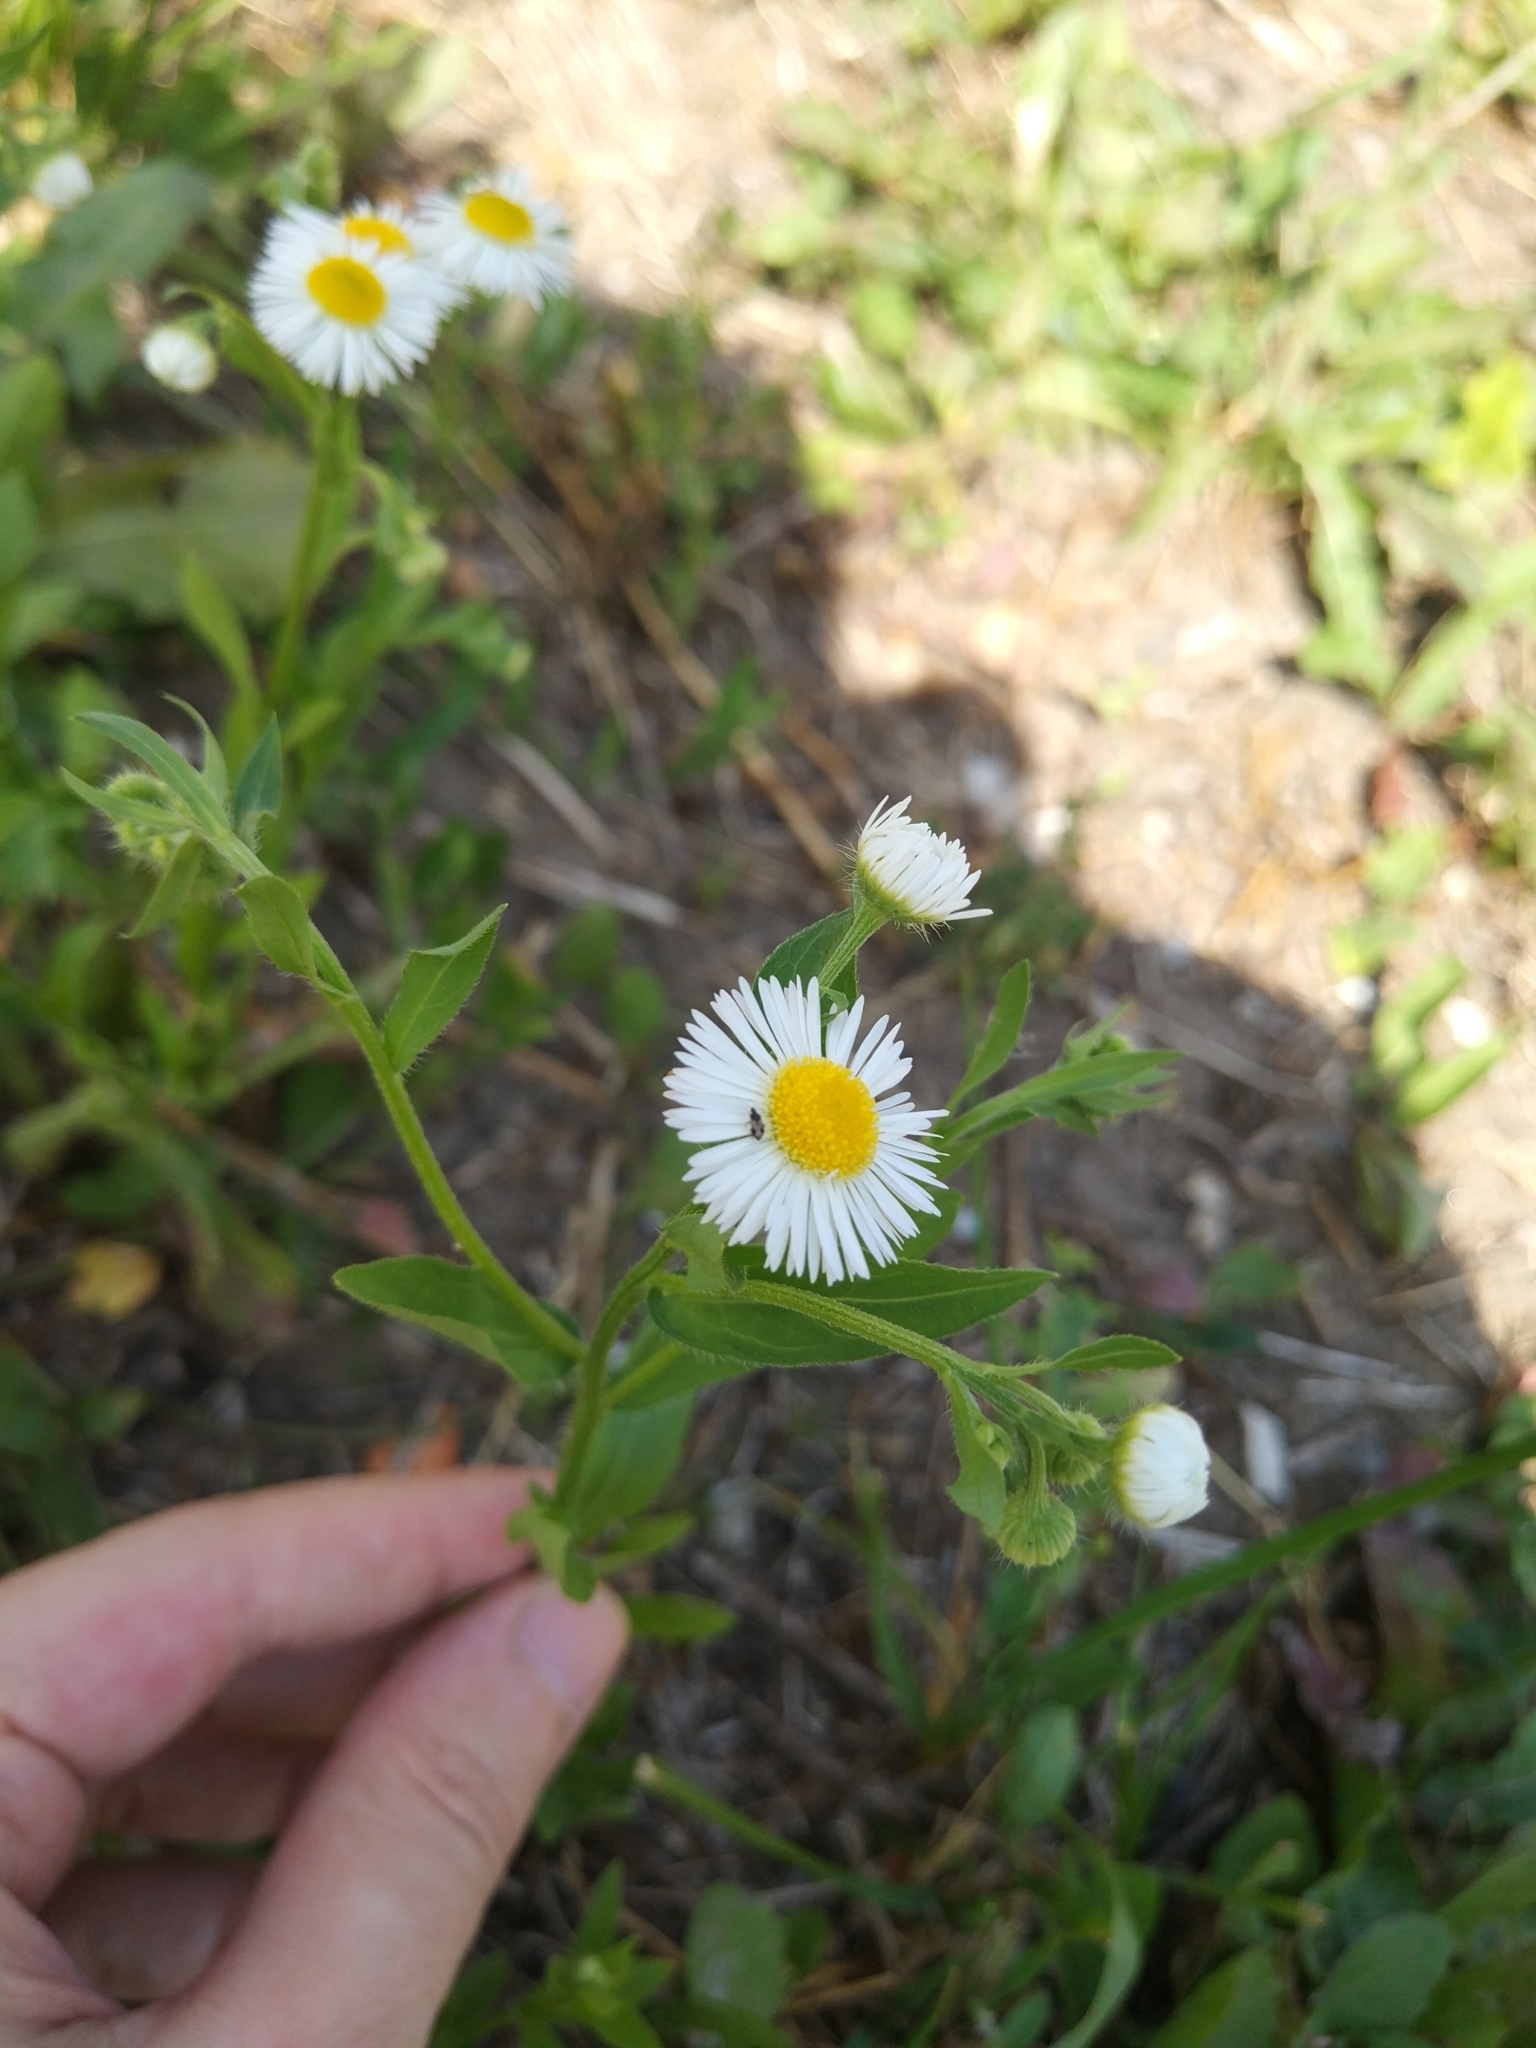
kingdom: Plantae
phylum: Tracheophyta
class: Magnoliopsida
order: Asterales
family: Asteraceae
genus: Erigeron
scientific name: Erigeron strigosus
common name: Common eastern fleabane
